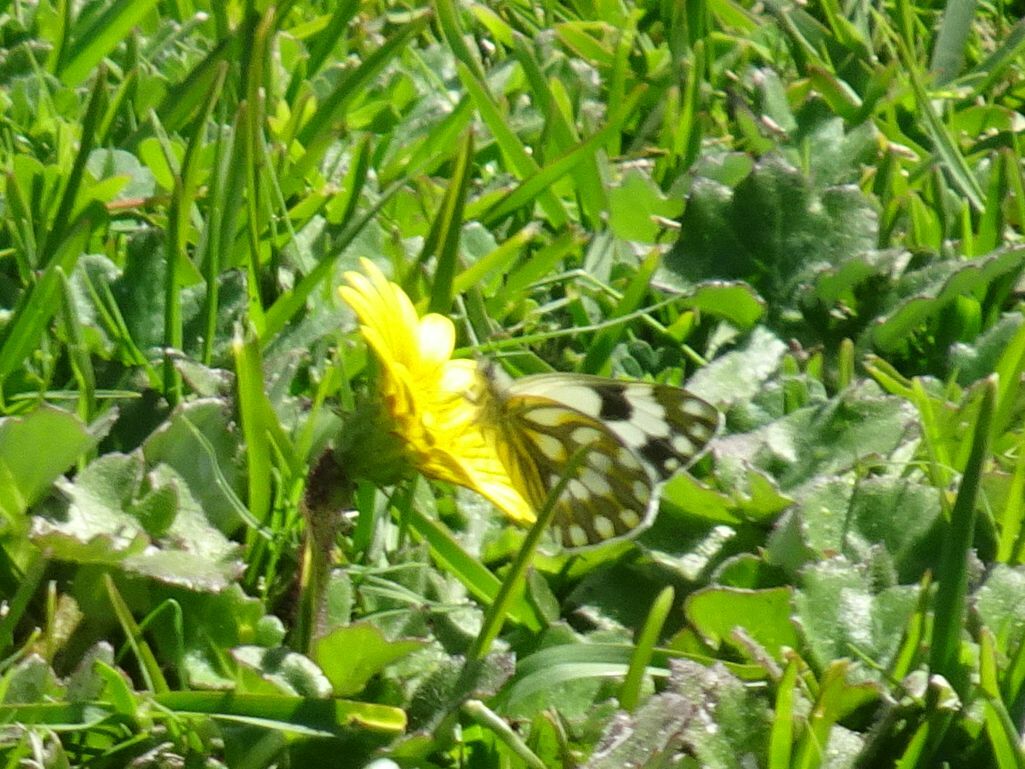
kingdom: Animalia
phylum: Arthropoda
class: Insecta
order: Lepidoptera
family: Pieridae
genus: Pontia
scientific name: Pontia helice
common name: Meadow white
